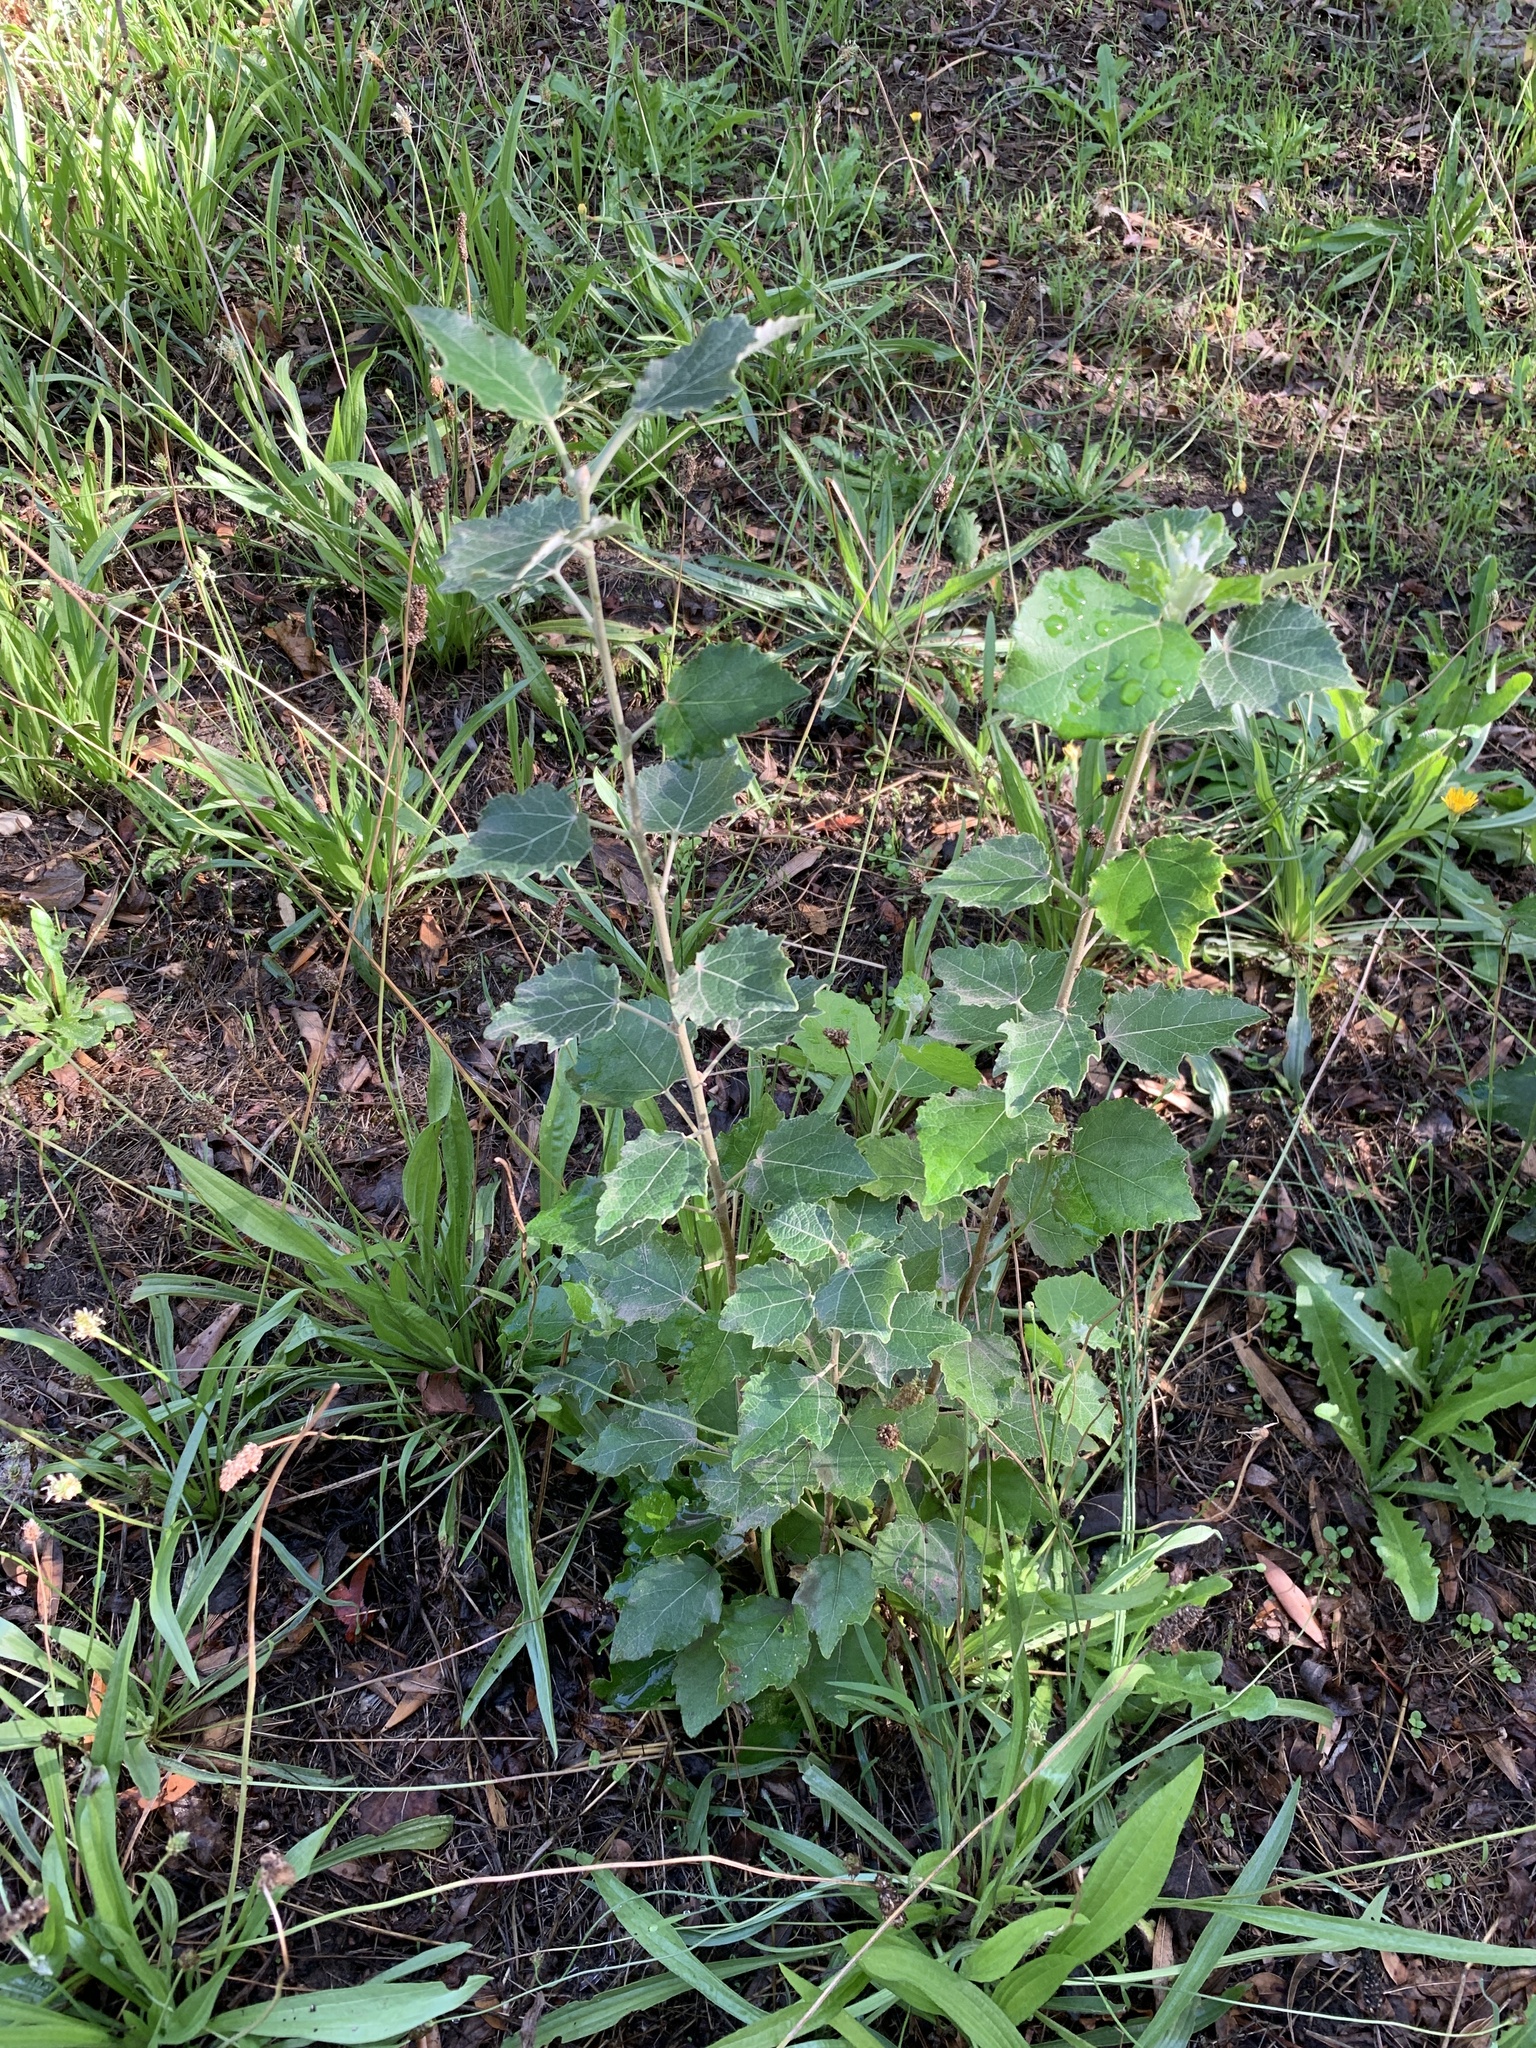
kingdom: Plantae
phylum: Tracheophyta
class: Magnoliopsida
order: Malpighiales
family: Salicaceae
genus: Populus
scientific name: Populus canescens
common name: Gray poplar
